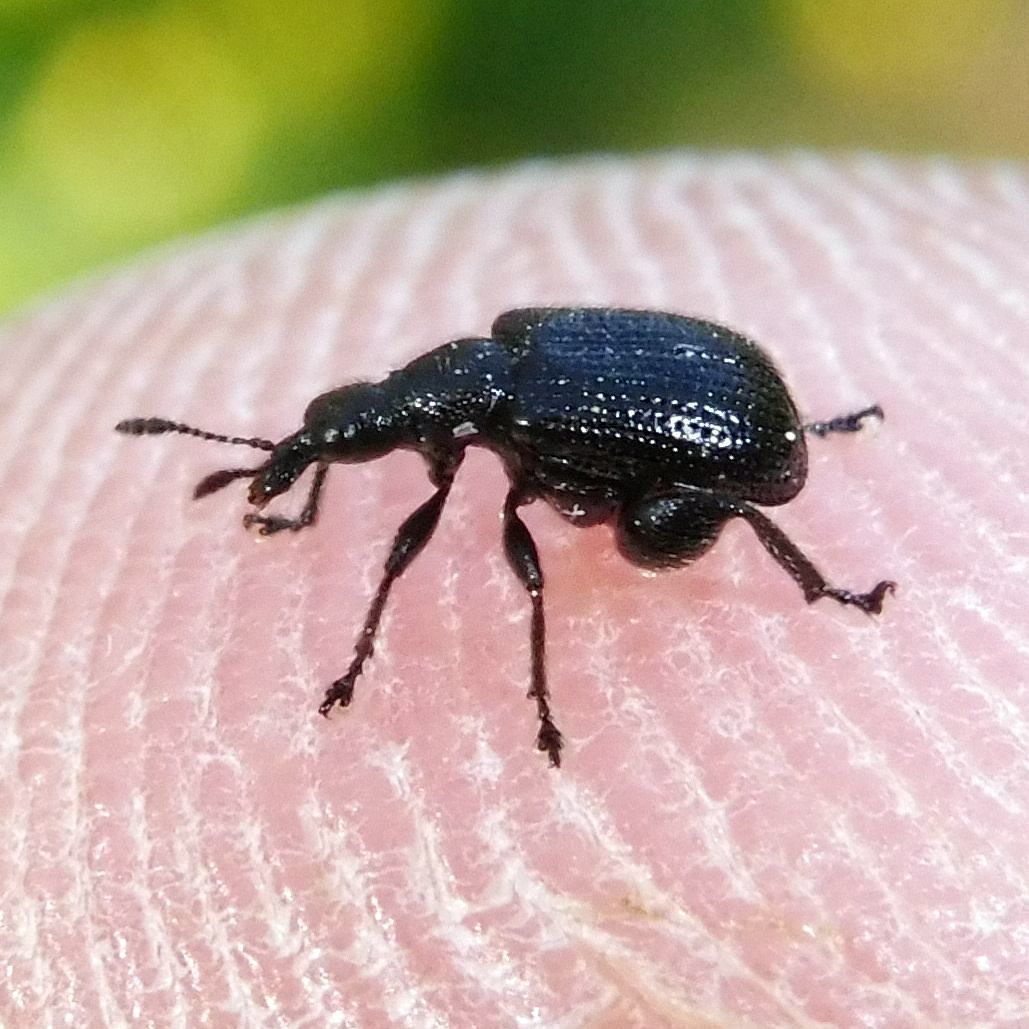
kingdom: Animalia
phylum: Arthropoda
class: Insecta
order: Coleoptera
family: Attelabidae
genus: Deporaus
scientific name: Deporaus betulae
